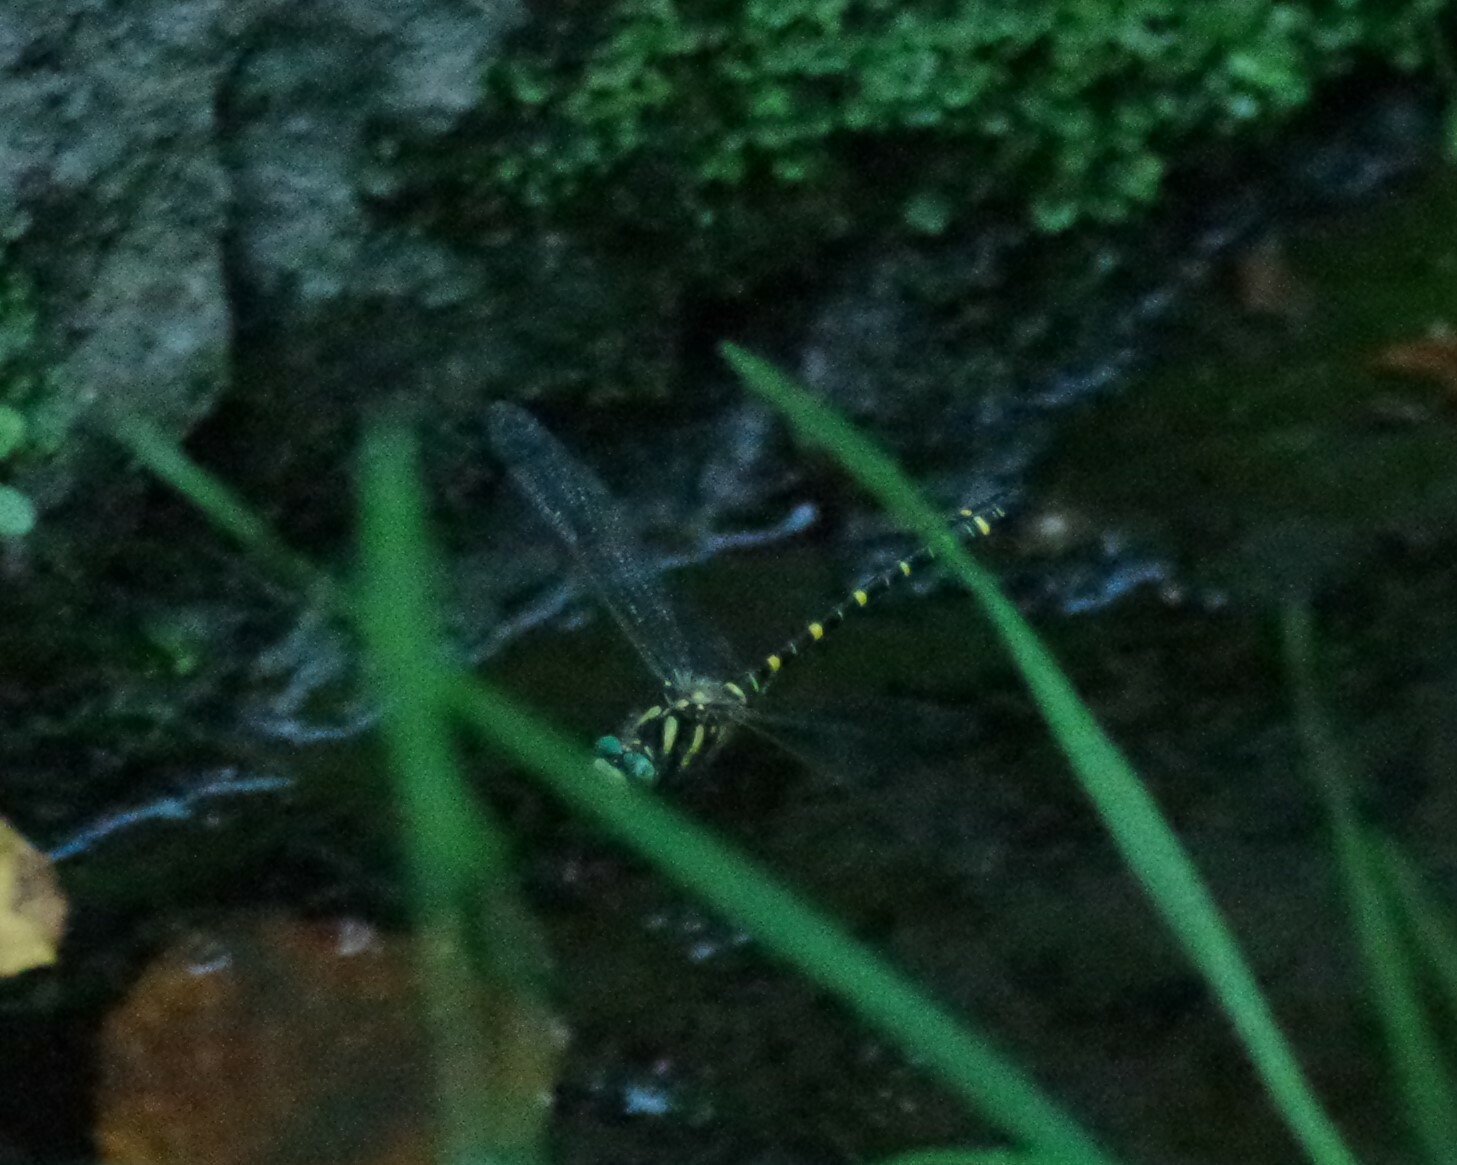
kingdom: Animalia
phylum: Arthropoda
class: Insecta
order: Odonata
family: Cordulegastridae
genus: Cordulegaster
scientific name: Cordulegaster boltonii
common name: Golden-ringed dragonfly
